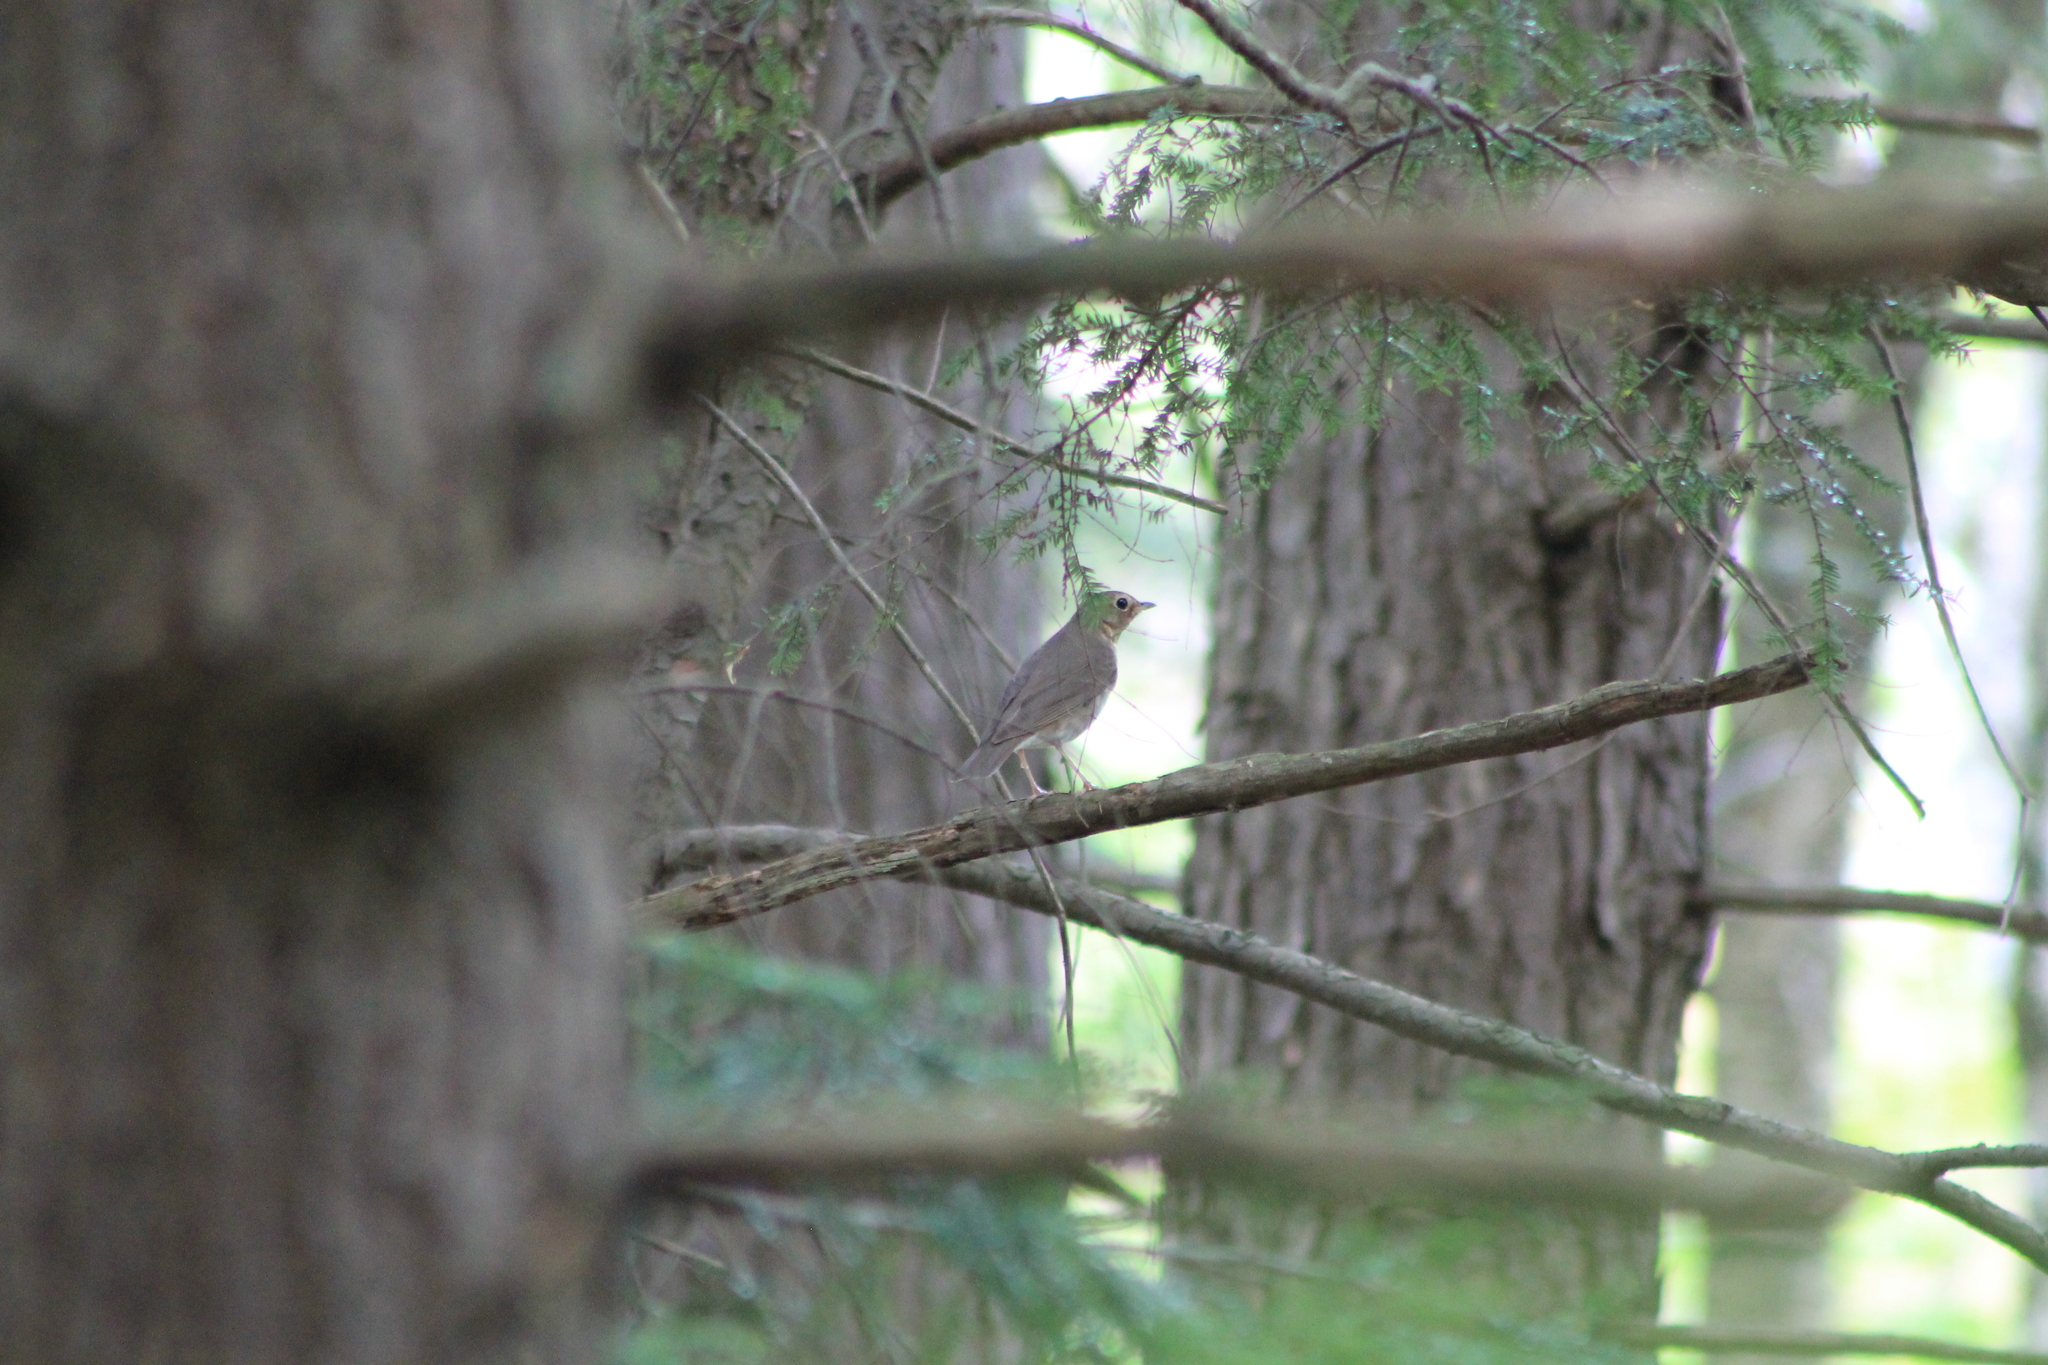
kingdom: Animalia
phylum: Chordata
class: Aves
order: Passeriformes
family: Turdidae
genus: Catharus
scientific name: Catharus ustulatus
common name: Swainson's thrush
